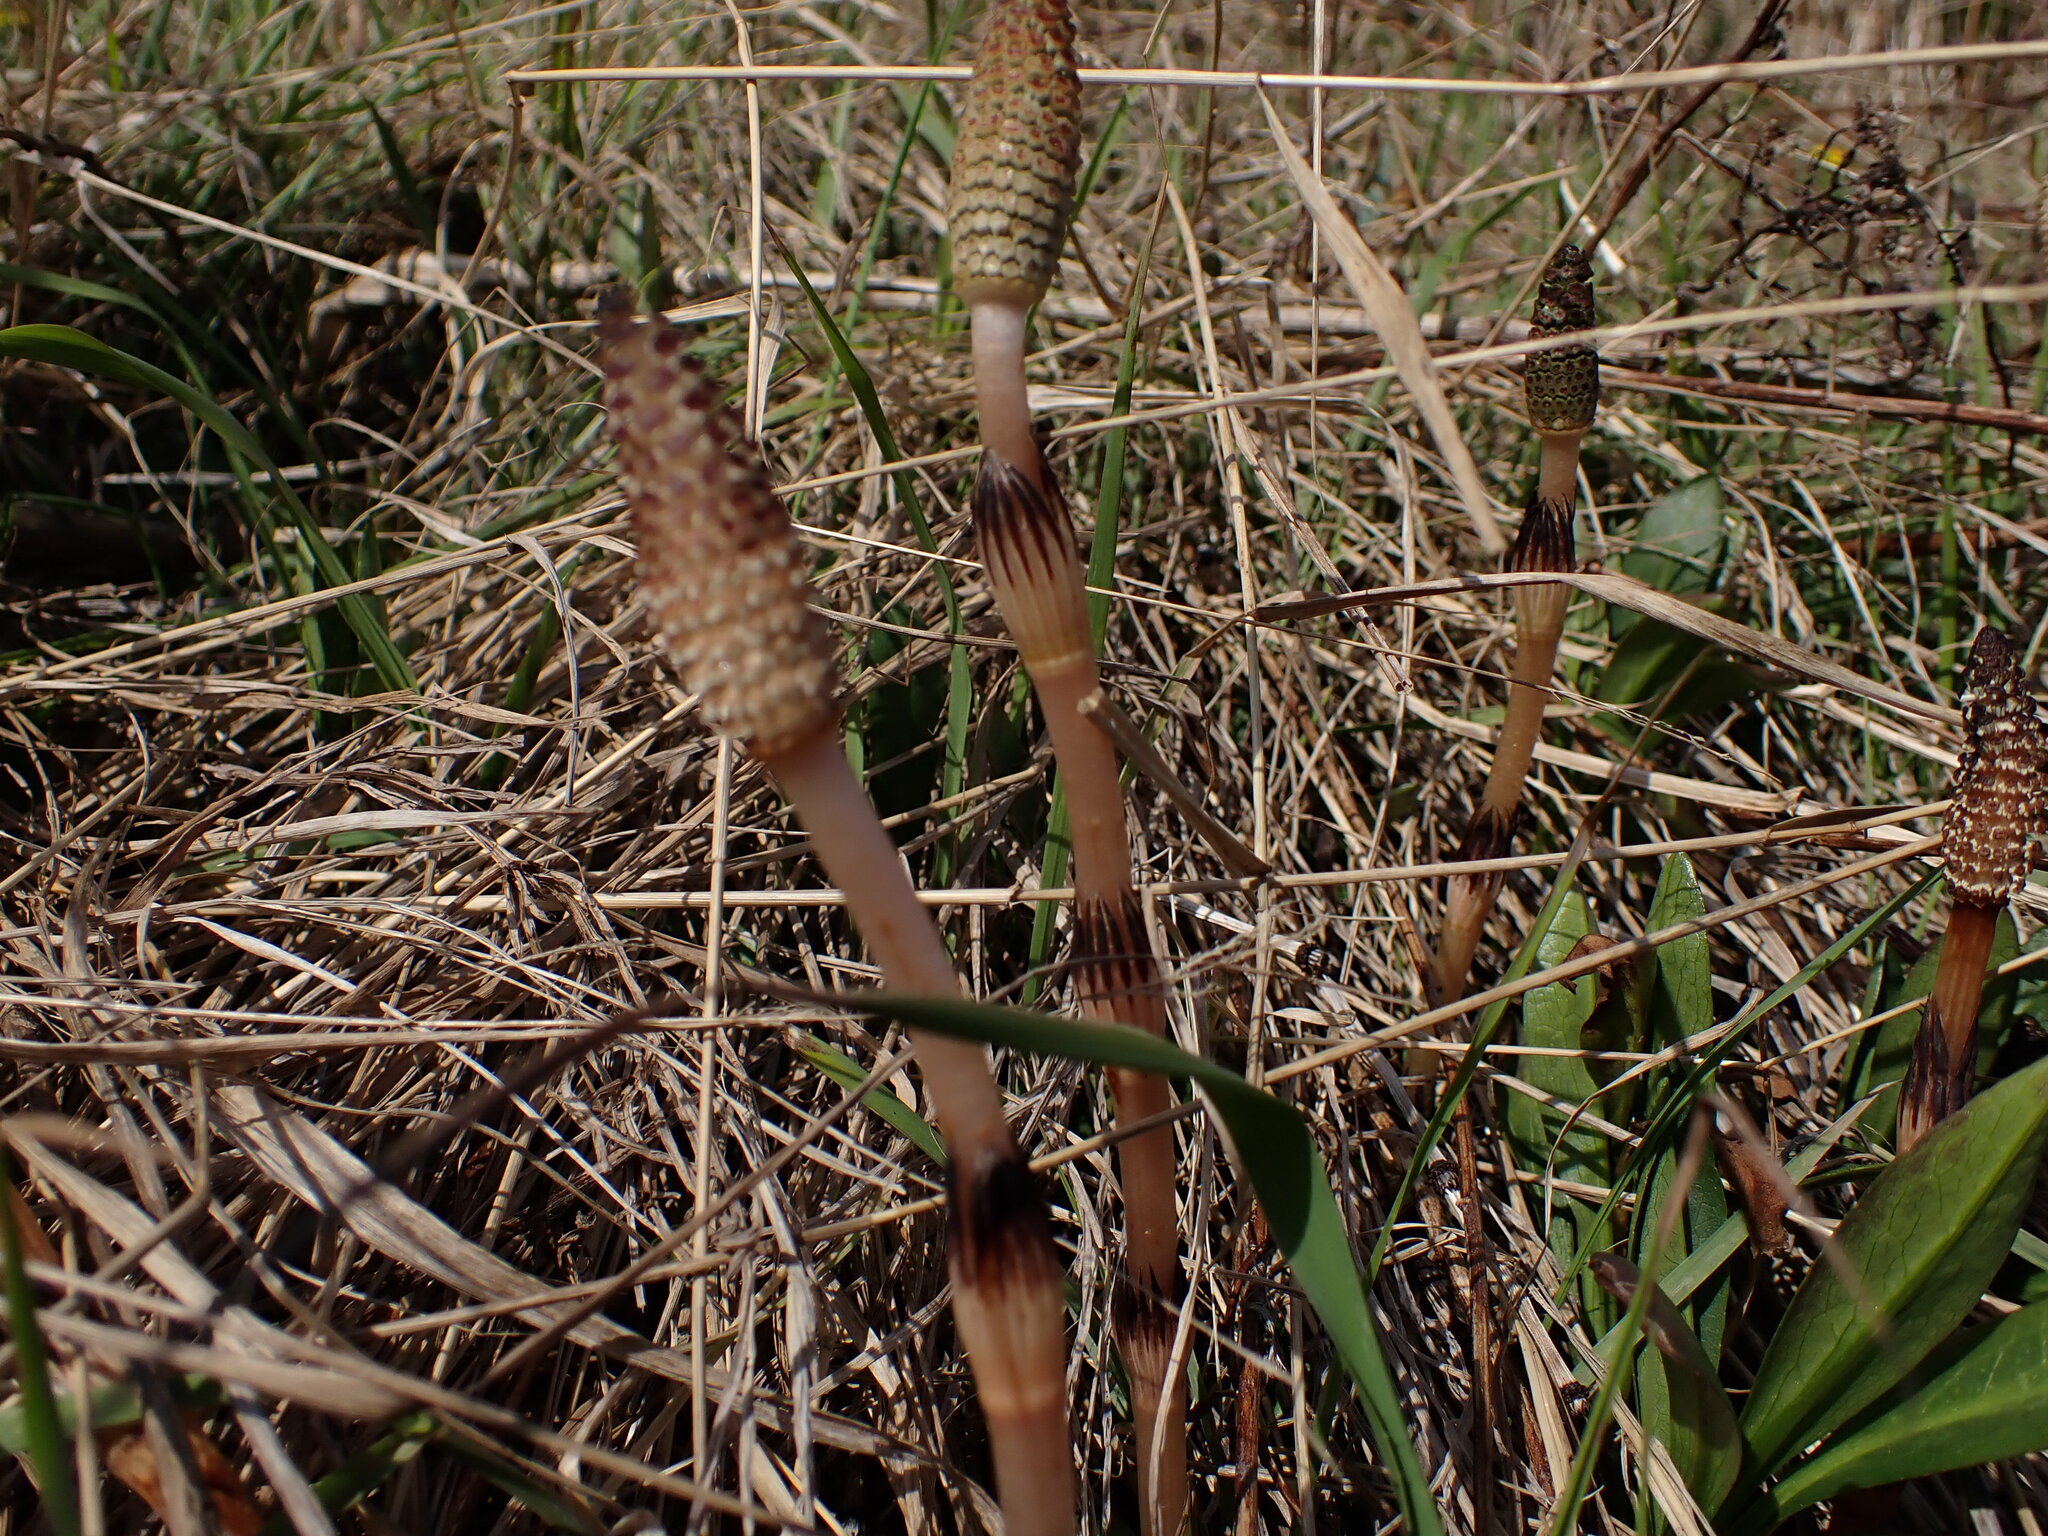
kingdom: Plantae
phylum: Tracheophyta
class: Polypodiopsida
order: Equisetales
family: Equisetaceae
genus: Equisetum
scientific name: Equisetum arvense
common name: Field horsetail
